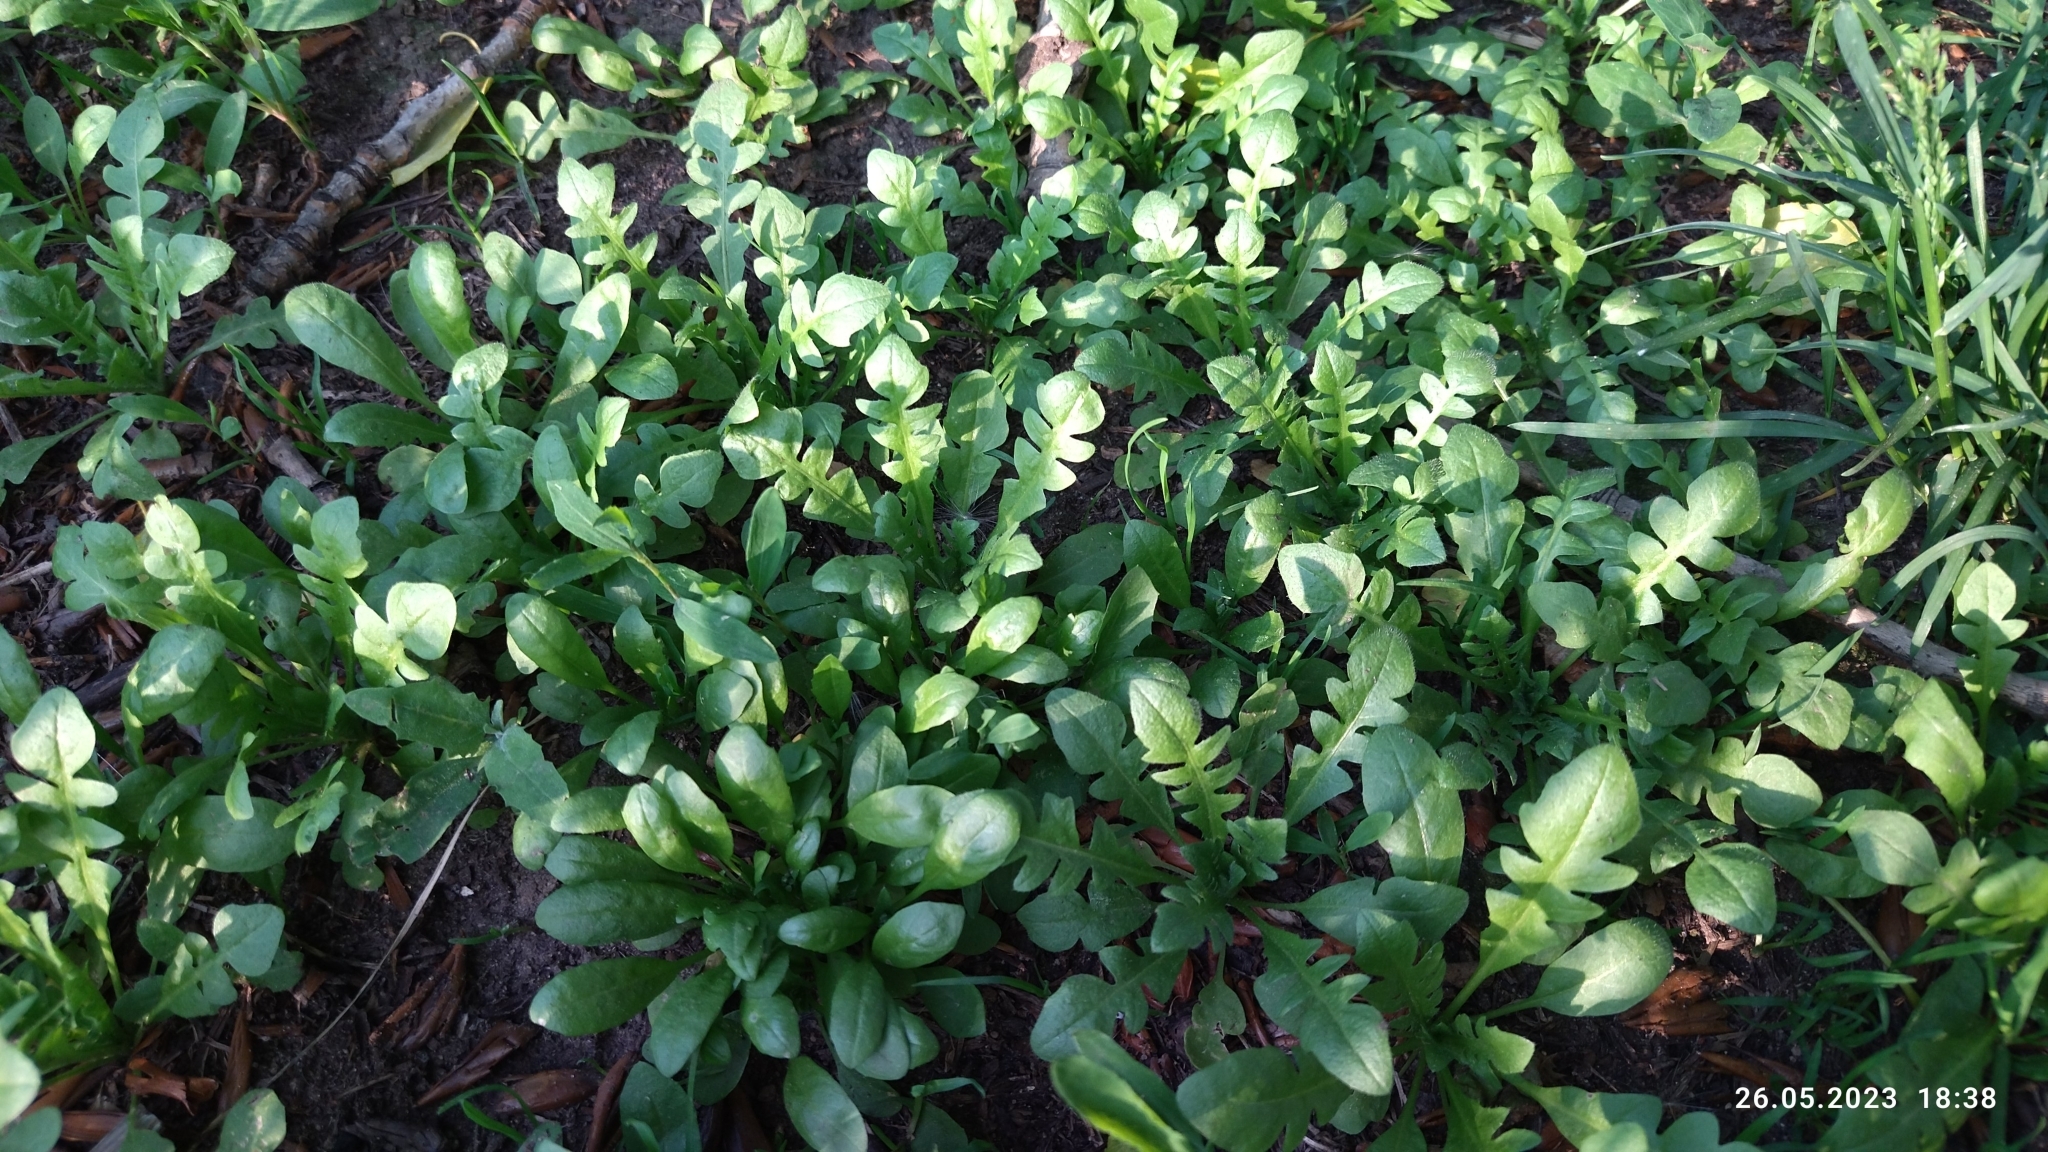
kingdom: Plantae
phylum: Tracheophyta
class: Magnoliopsida
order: Brassicales
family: Brassicaceae
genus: Capsella
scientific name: Capsella bursa-pastoris
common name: Shepherd's purse
